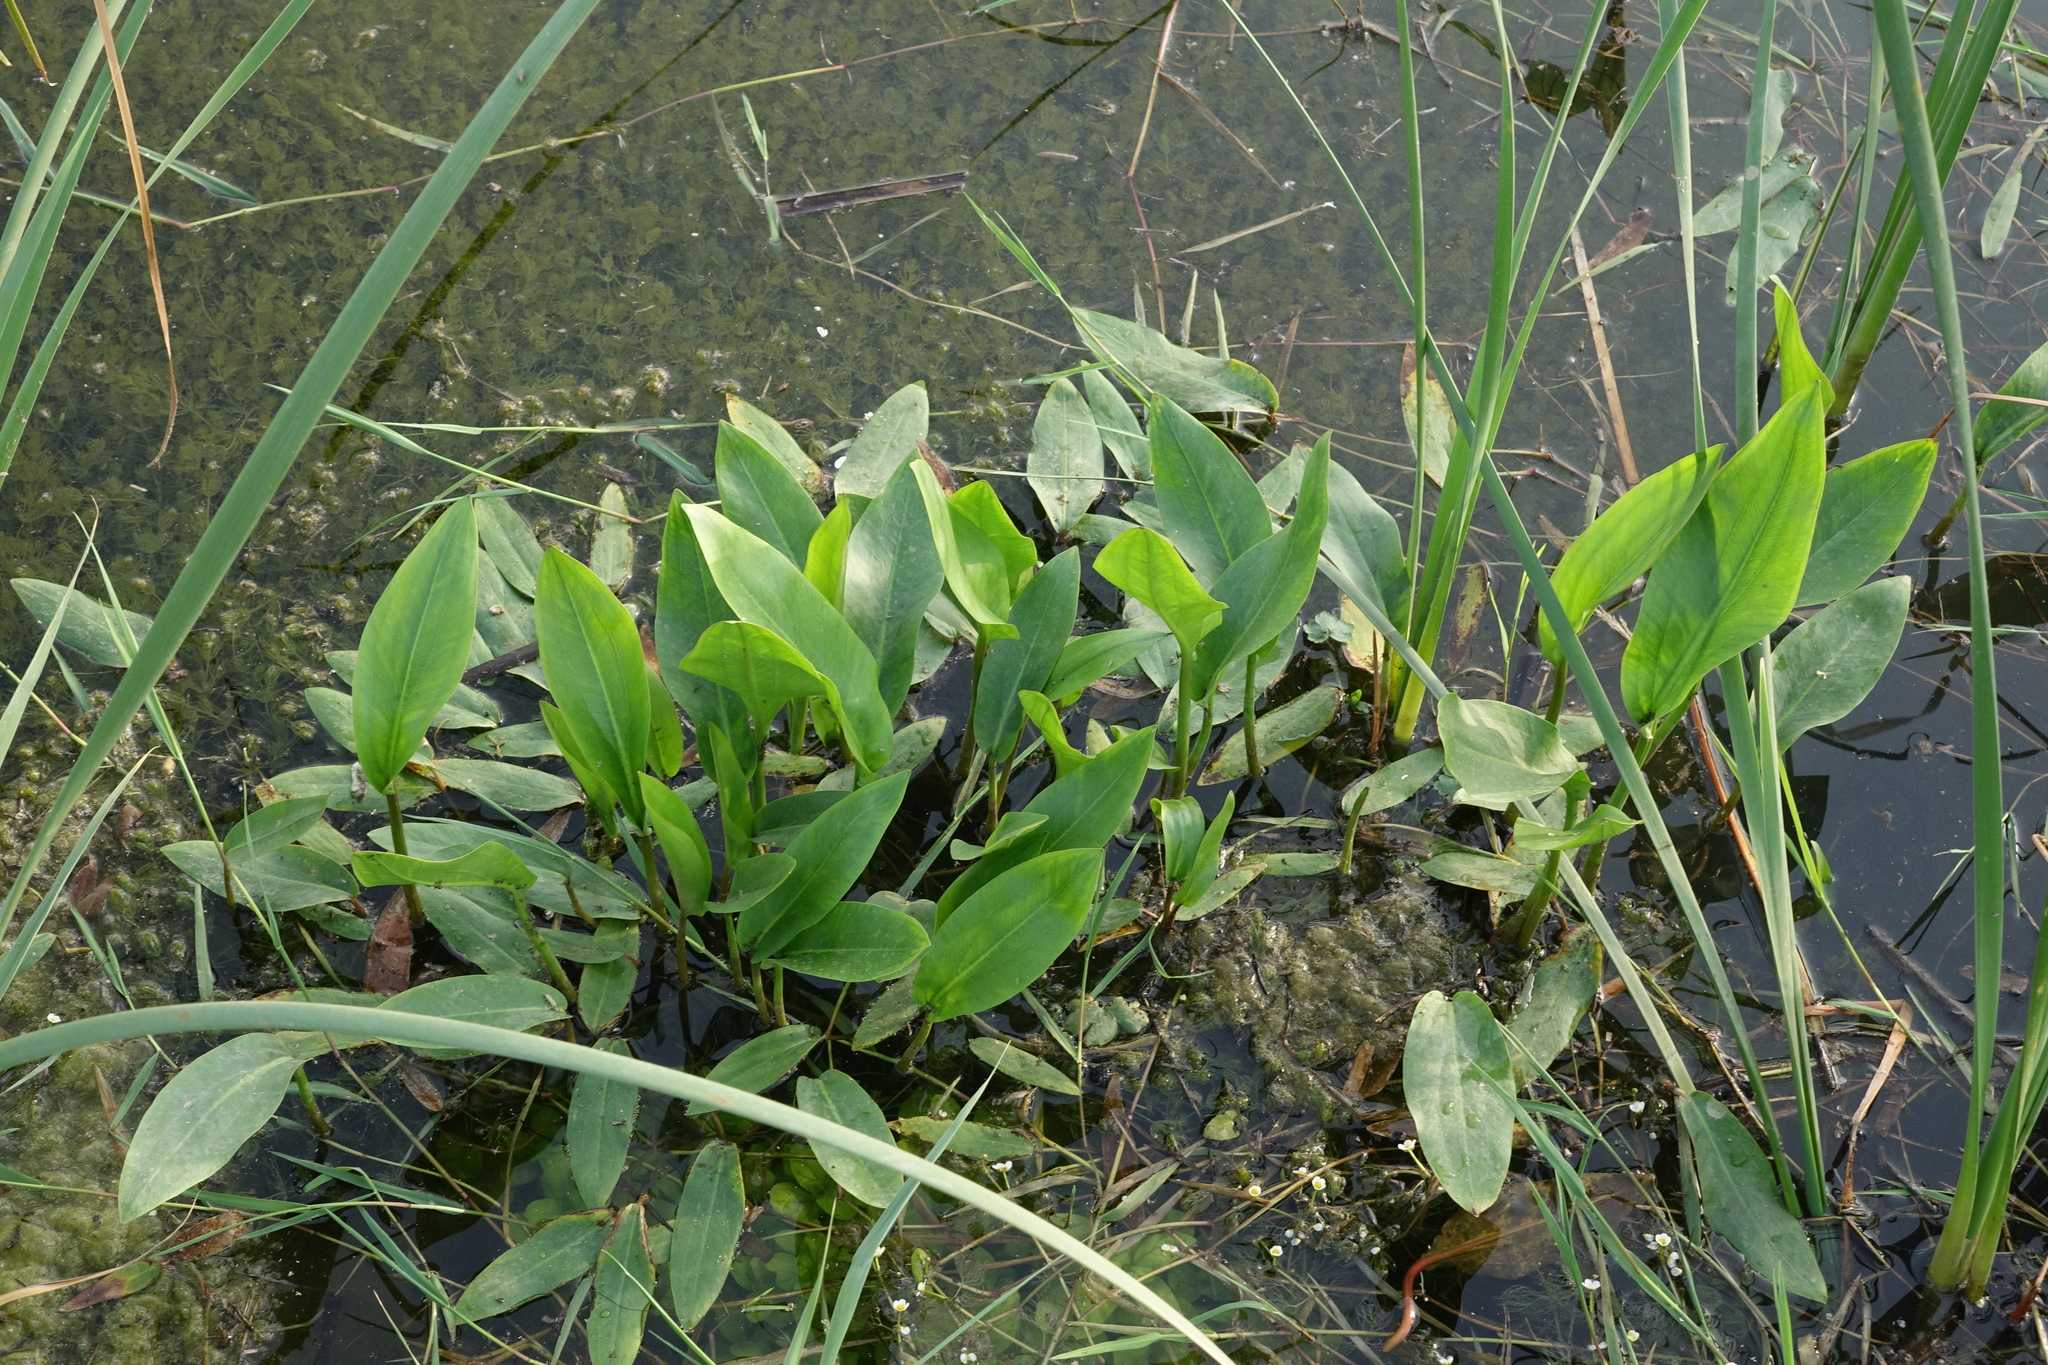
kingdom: Plantae
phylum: Tracheophyta
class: Liliopsida
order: Alismatales
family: Alismataceae
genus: Alisma
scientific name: Alisma plantago-aquatica
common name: Water-plantain
